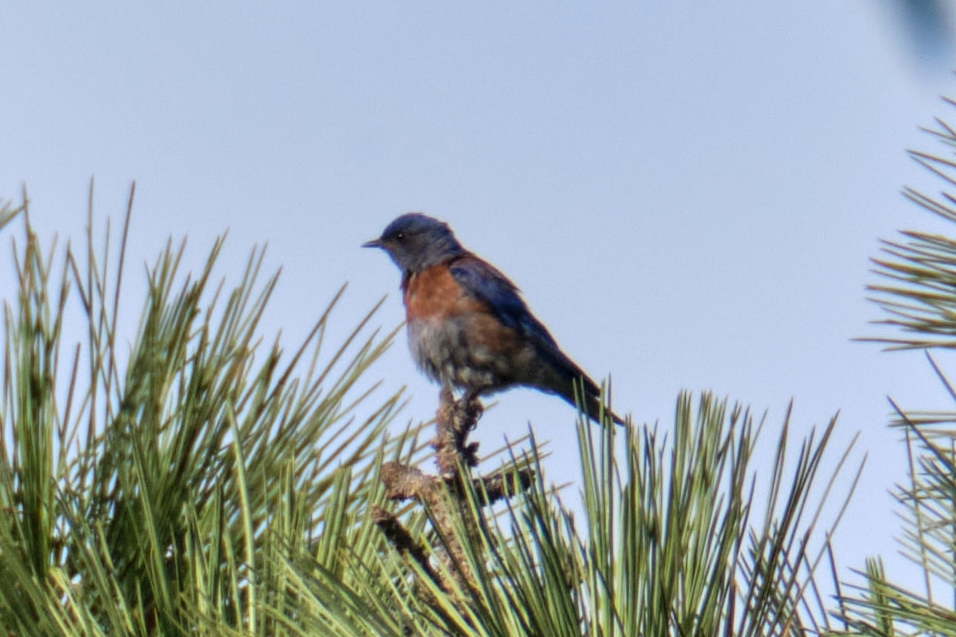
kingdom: Animalia
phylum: Chordata
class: Aves
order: Passeriformes
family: Turdidae
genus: Sialia
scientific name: Sialia mexicana
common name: Western bluebird
